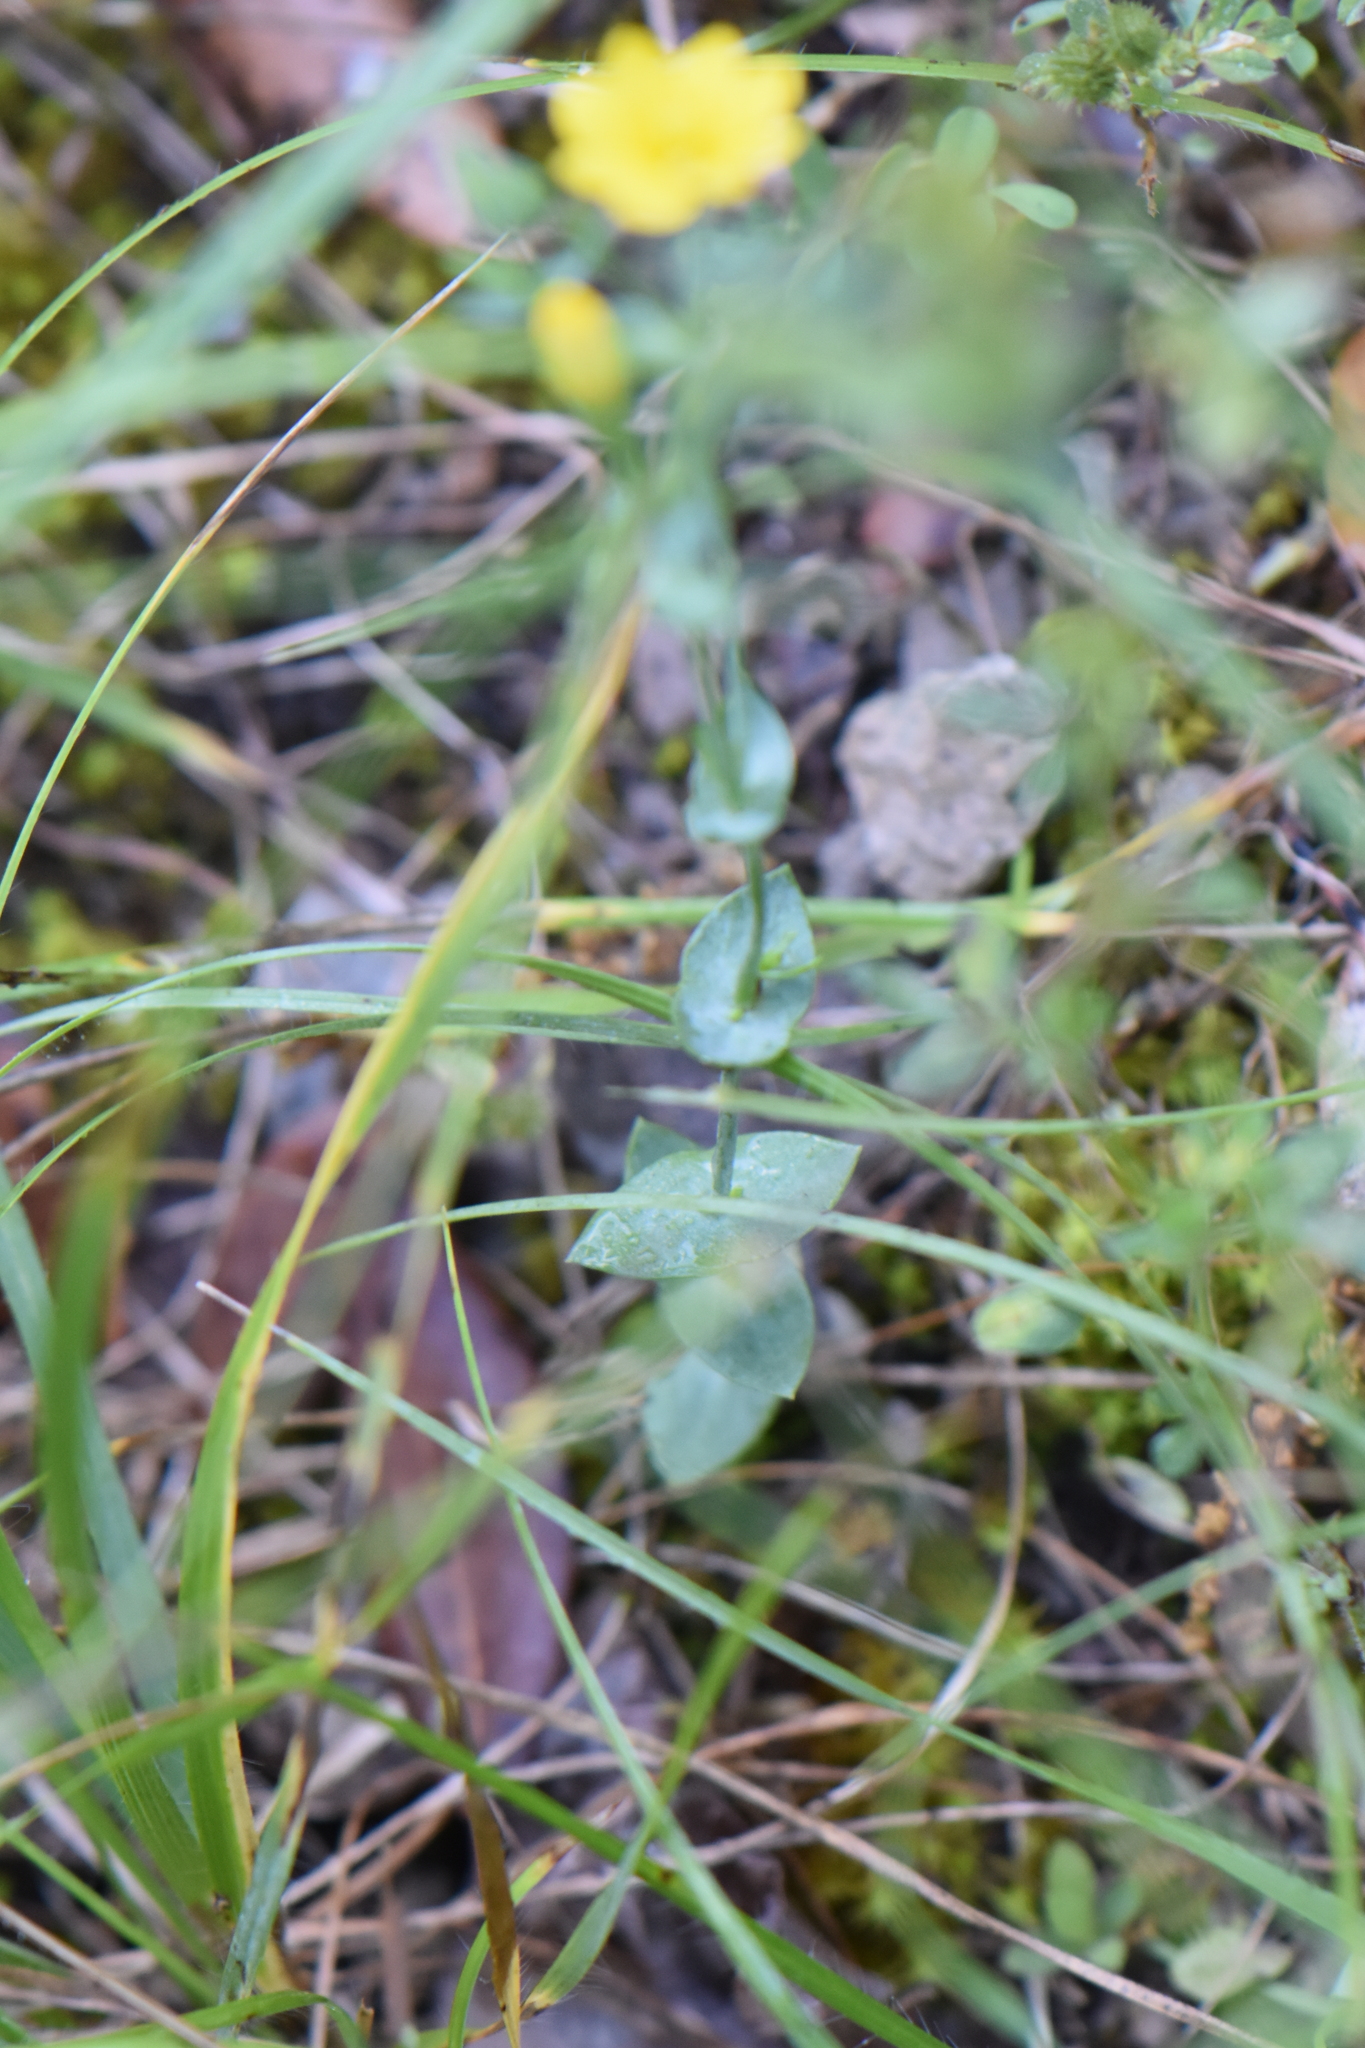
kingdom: Plantae
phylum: Tracheophyta
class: Magnoliopsida
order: Gentianales
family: Gentianaceae
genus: Blackstonia
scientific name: Blackstonia perfoliata
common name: Yellow-wort
